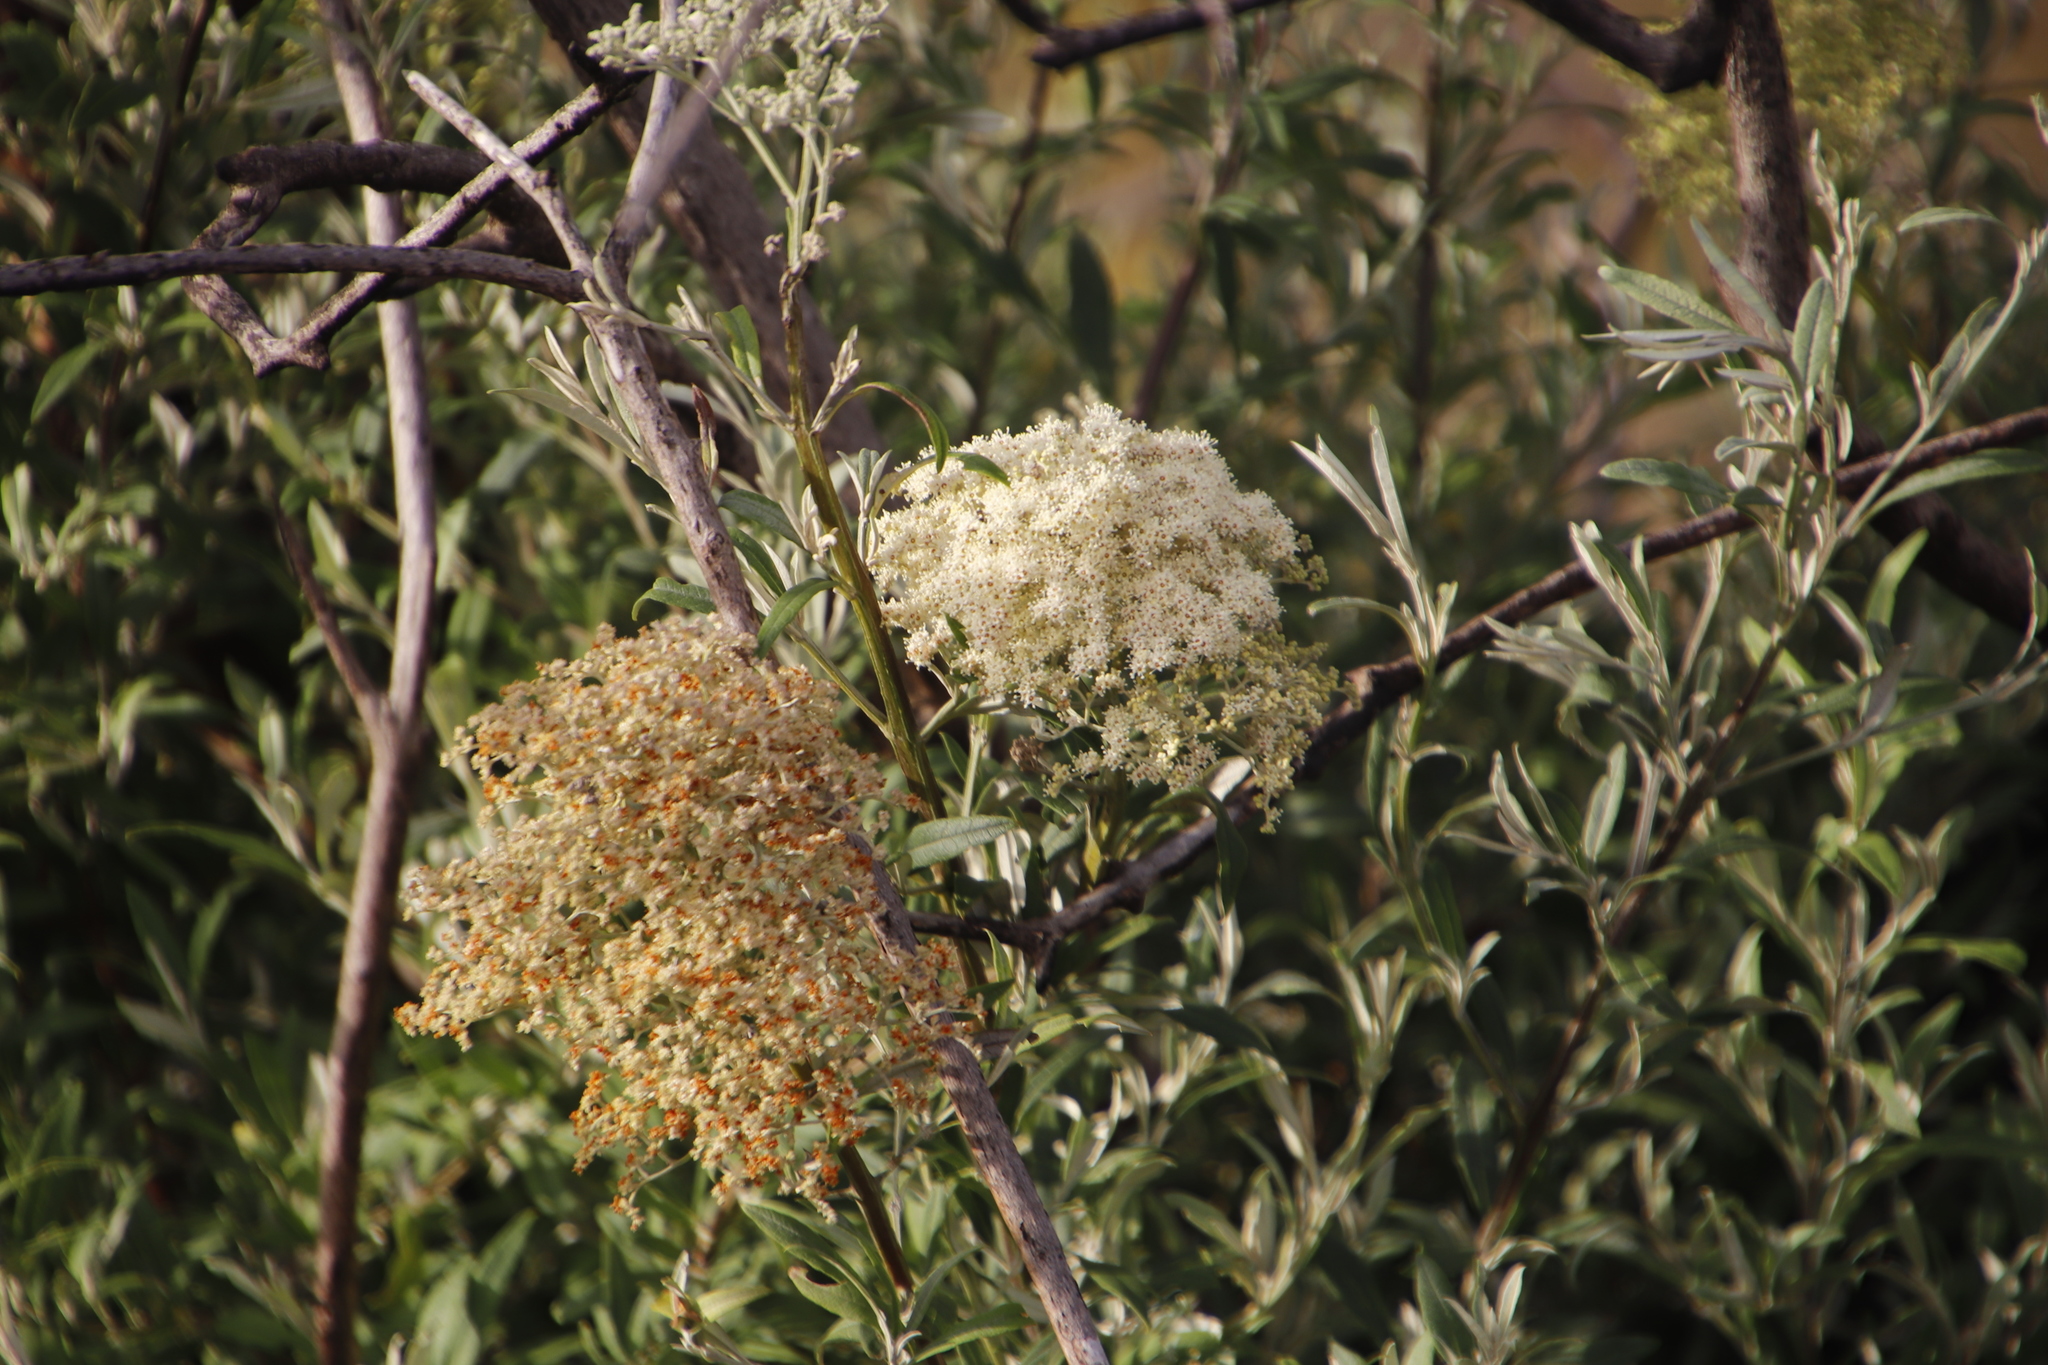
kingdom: Plantae
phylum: Tracheophyta
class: Magnoliopsida
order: Lamiales
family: Scrophulariaceae
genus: Buddleja
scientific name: Buddleja saligna
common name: False olive
